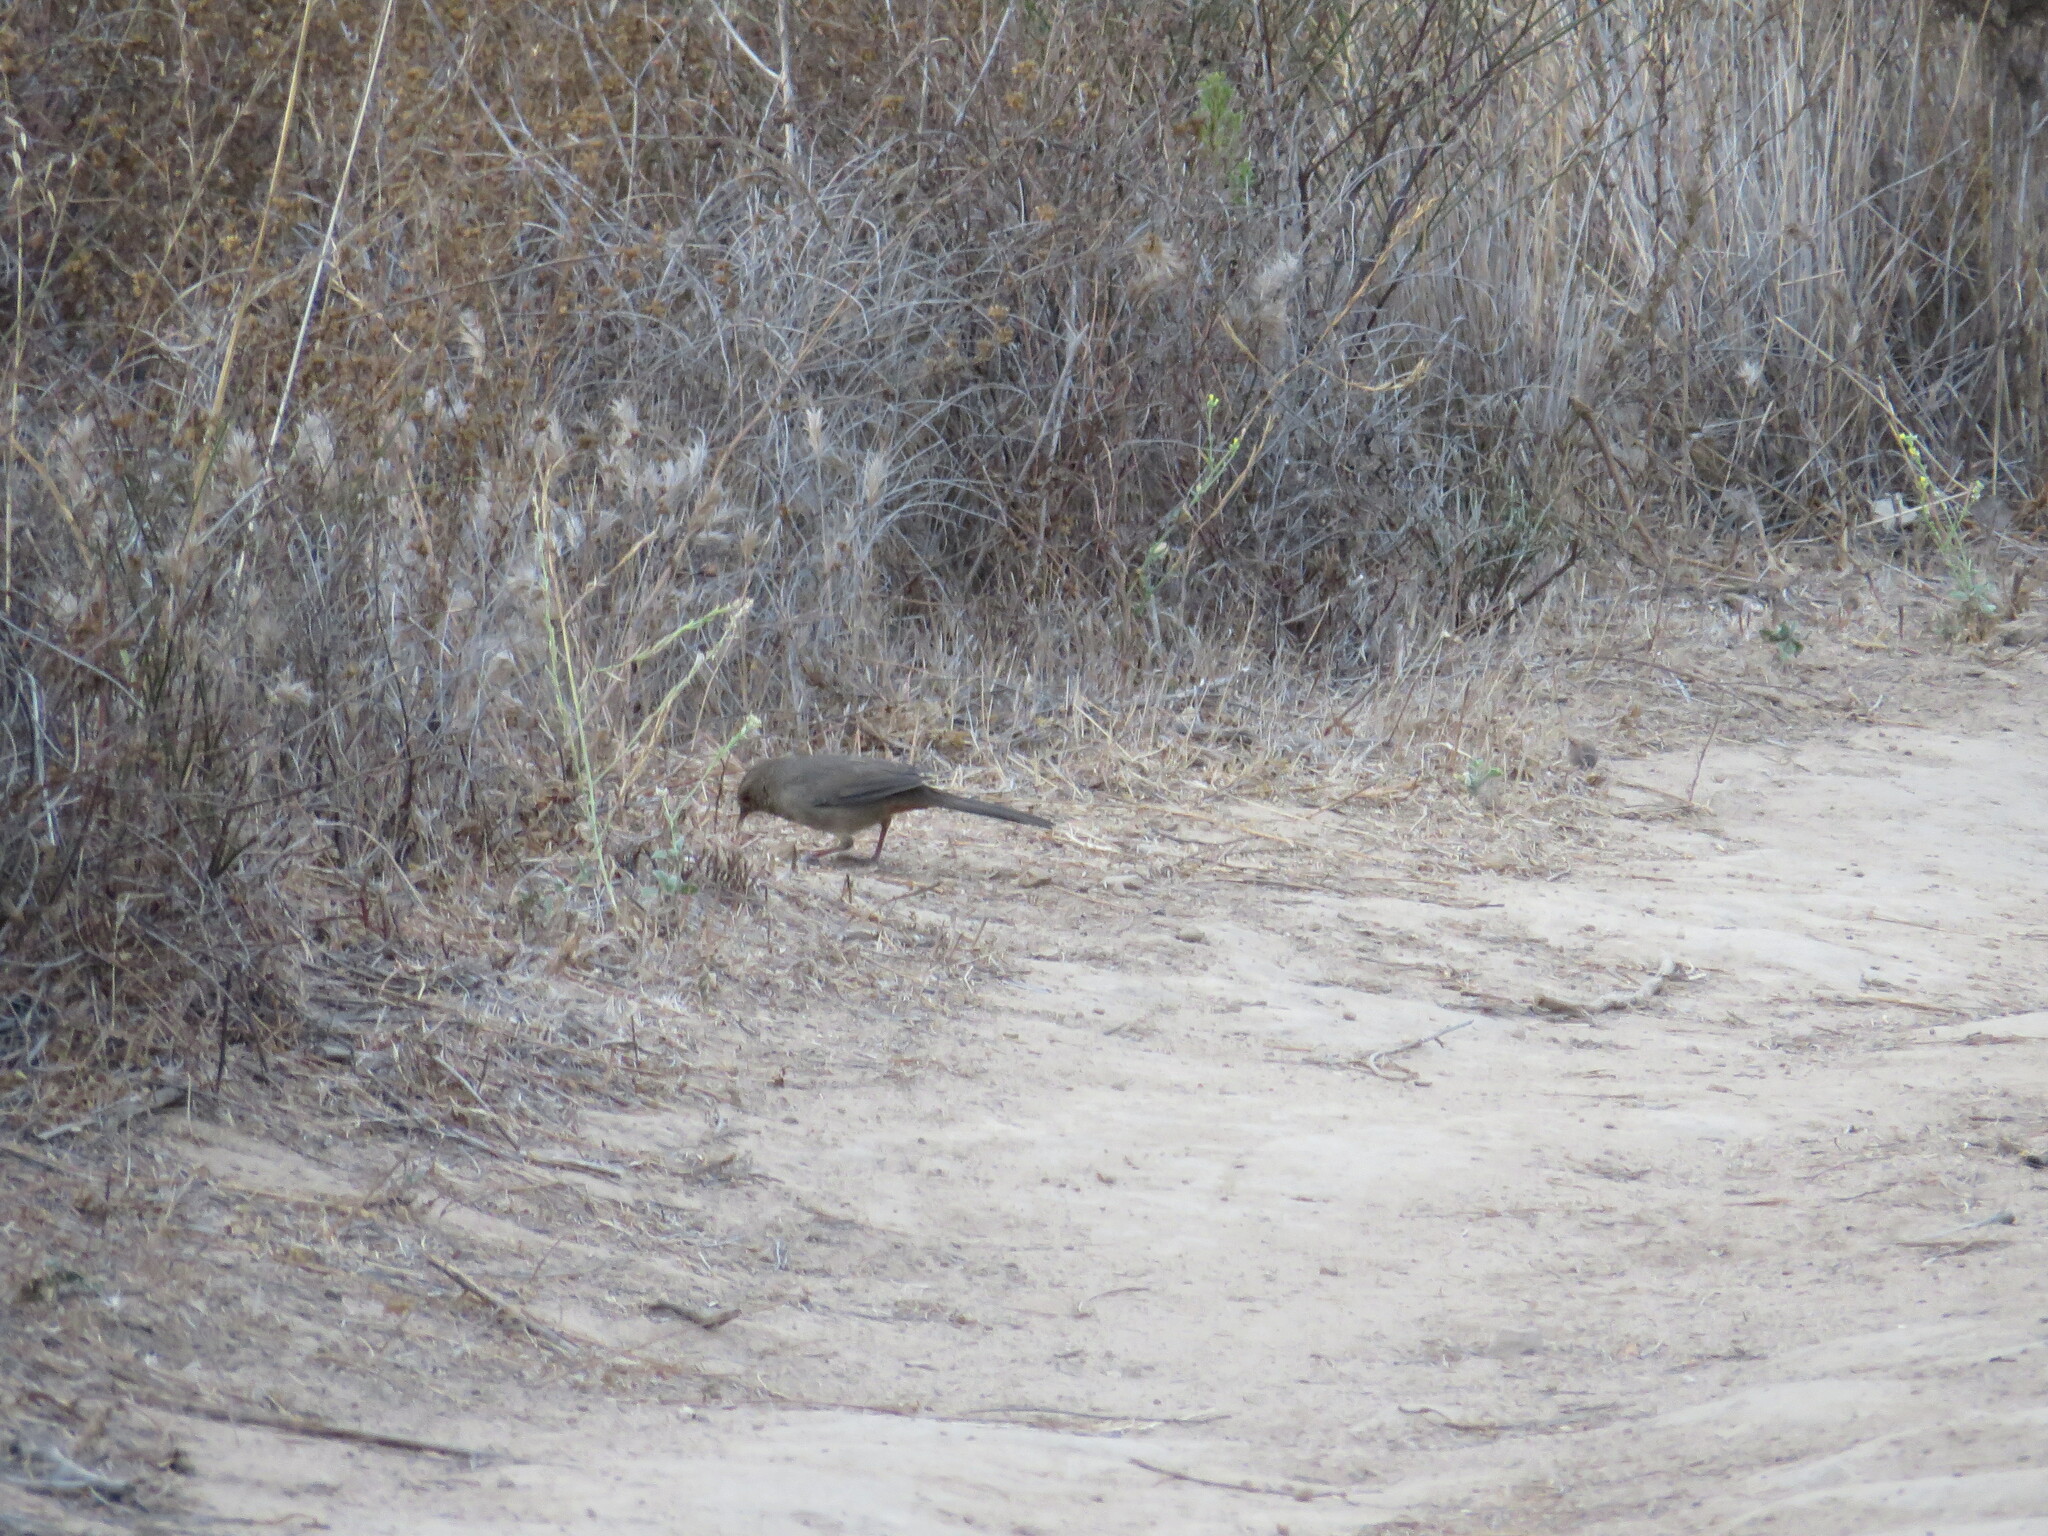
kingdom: Animalia
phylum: Chordata
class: Aves
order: Passeriformes
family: Passerellidae
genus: Melozone
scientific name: Melozone crissalis
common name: California towhee
